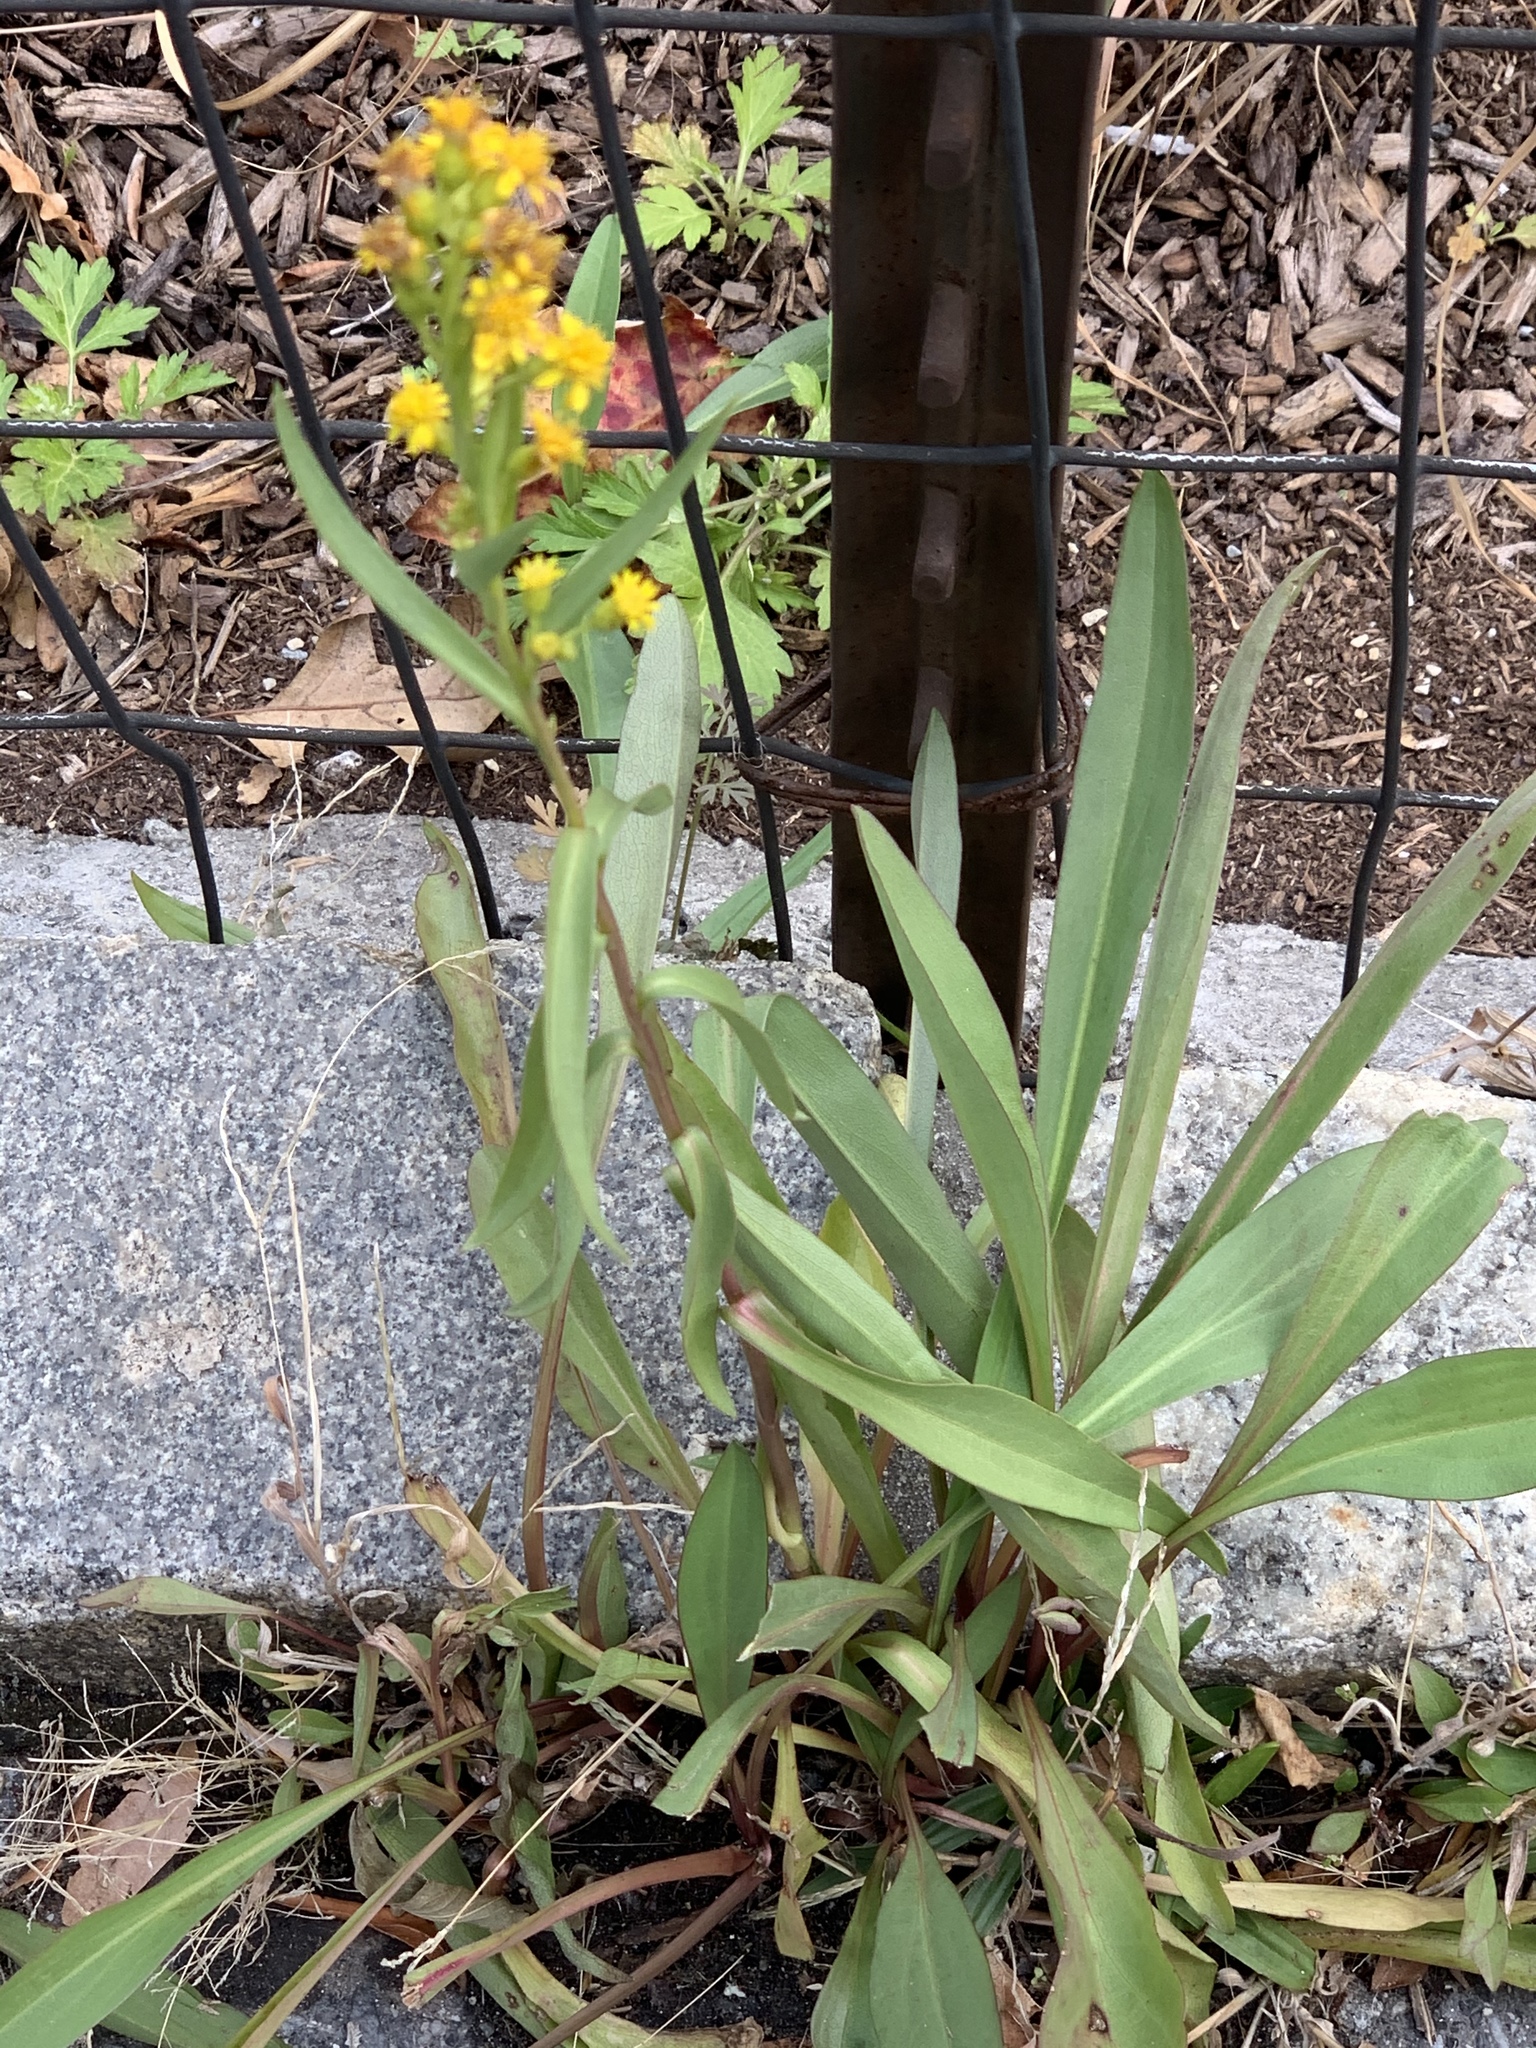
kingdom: Plantae
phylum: Tracheophyta
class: Magnoliopsida
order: Asterales
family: Asteraceae
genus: Solidago
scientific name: Solidago sempervirens
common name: Salt-marsh goldenrod
